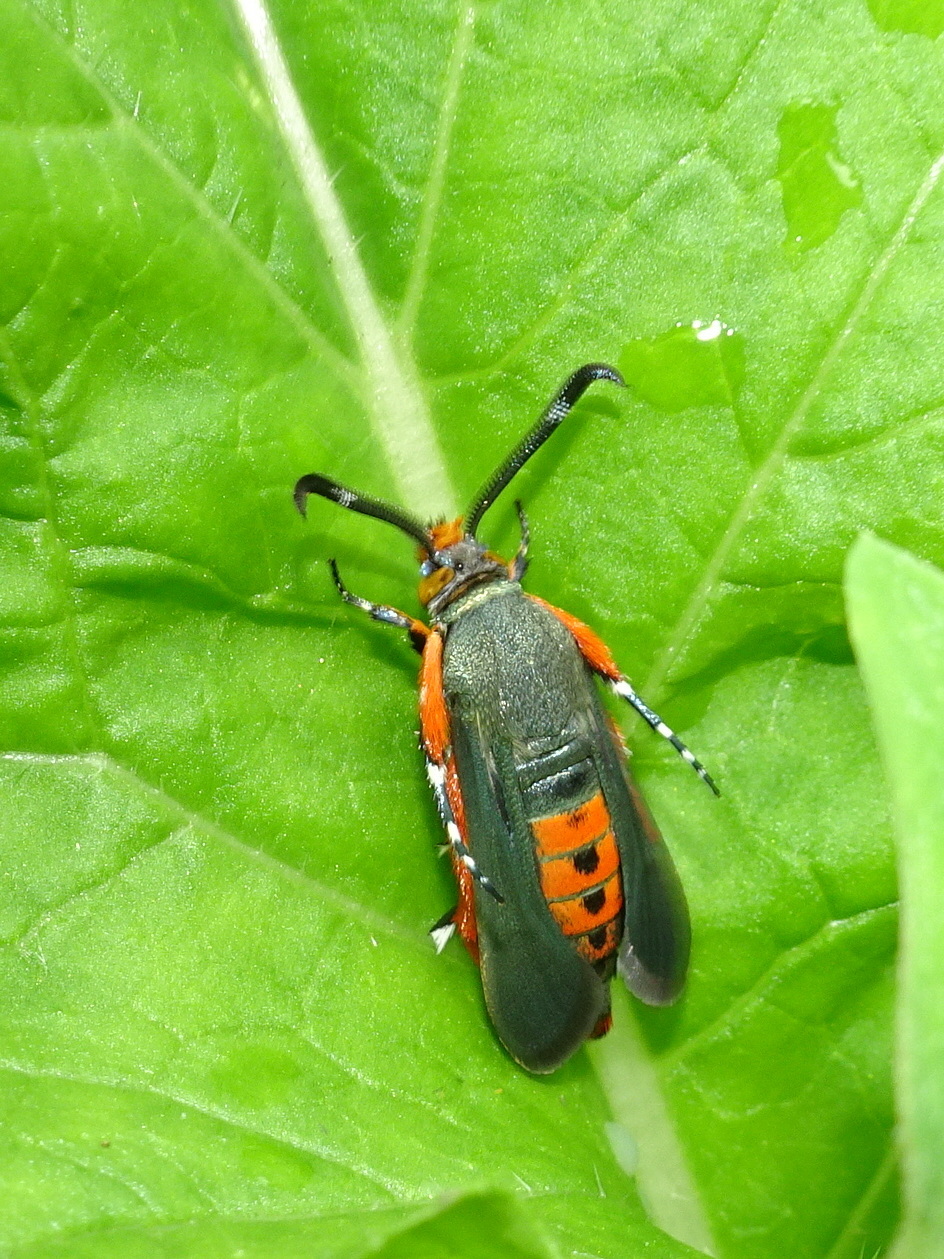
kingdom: Animalia
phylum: Arthropoda
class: Insecta
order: Lepidoptera
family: Sesiidae
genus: Eichlinia
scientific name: Eichlinia cucurbitae
